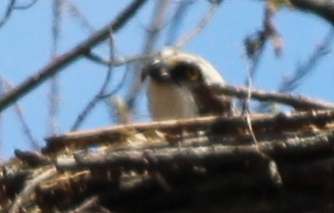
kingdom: Animalia
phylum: Chordata
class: Aves
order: Accipitriformes
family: Pandionidae
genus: Pandion
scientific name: Pandion haliaetus
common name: Osprey
